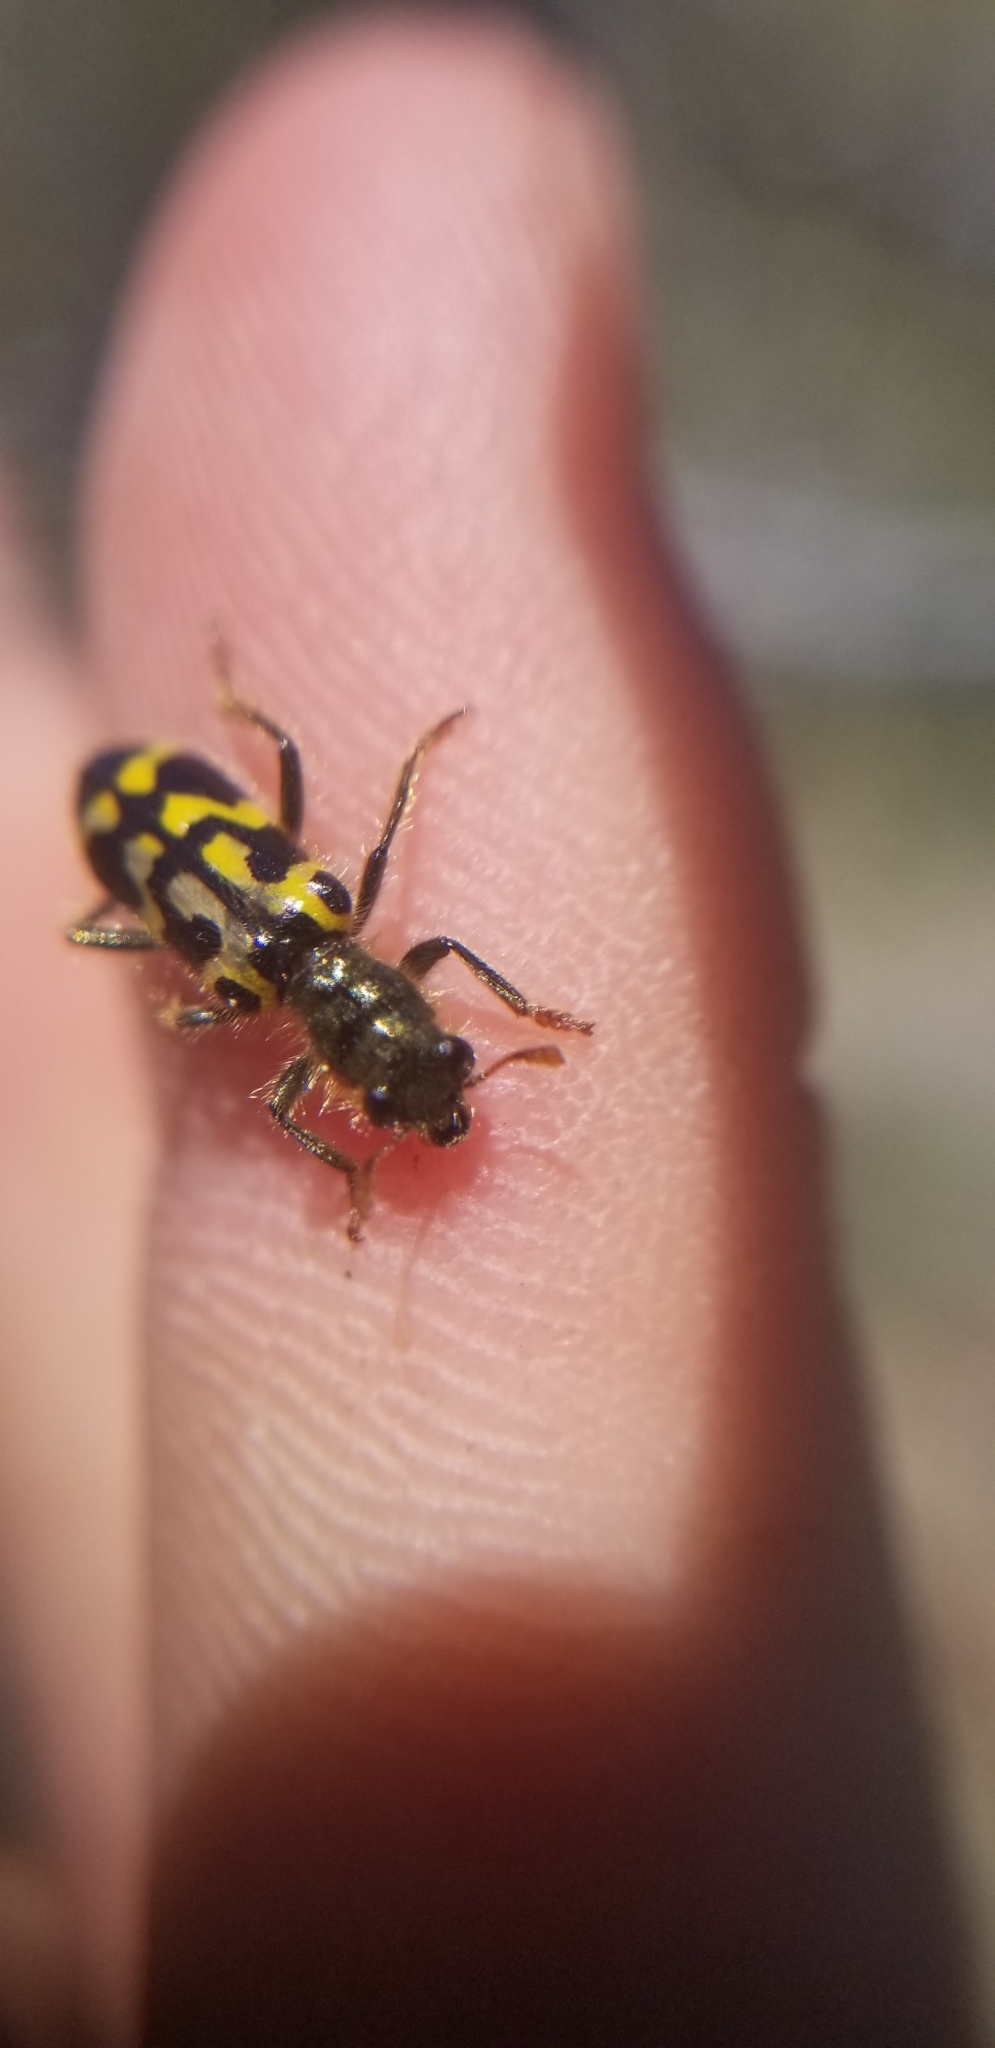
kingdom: Animalia
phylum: Arthropoda
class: Insecta
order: Coleoptera
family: Cleridae
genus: Trichodes
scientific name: Trichodes ornatus
